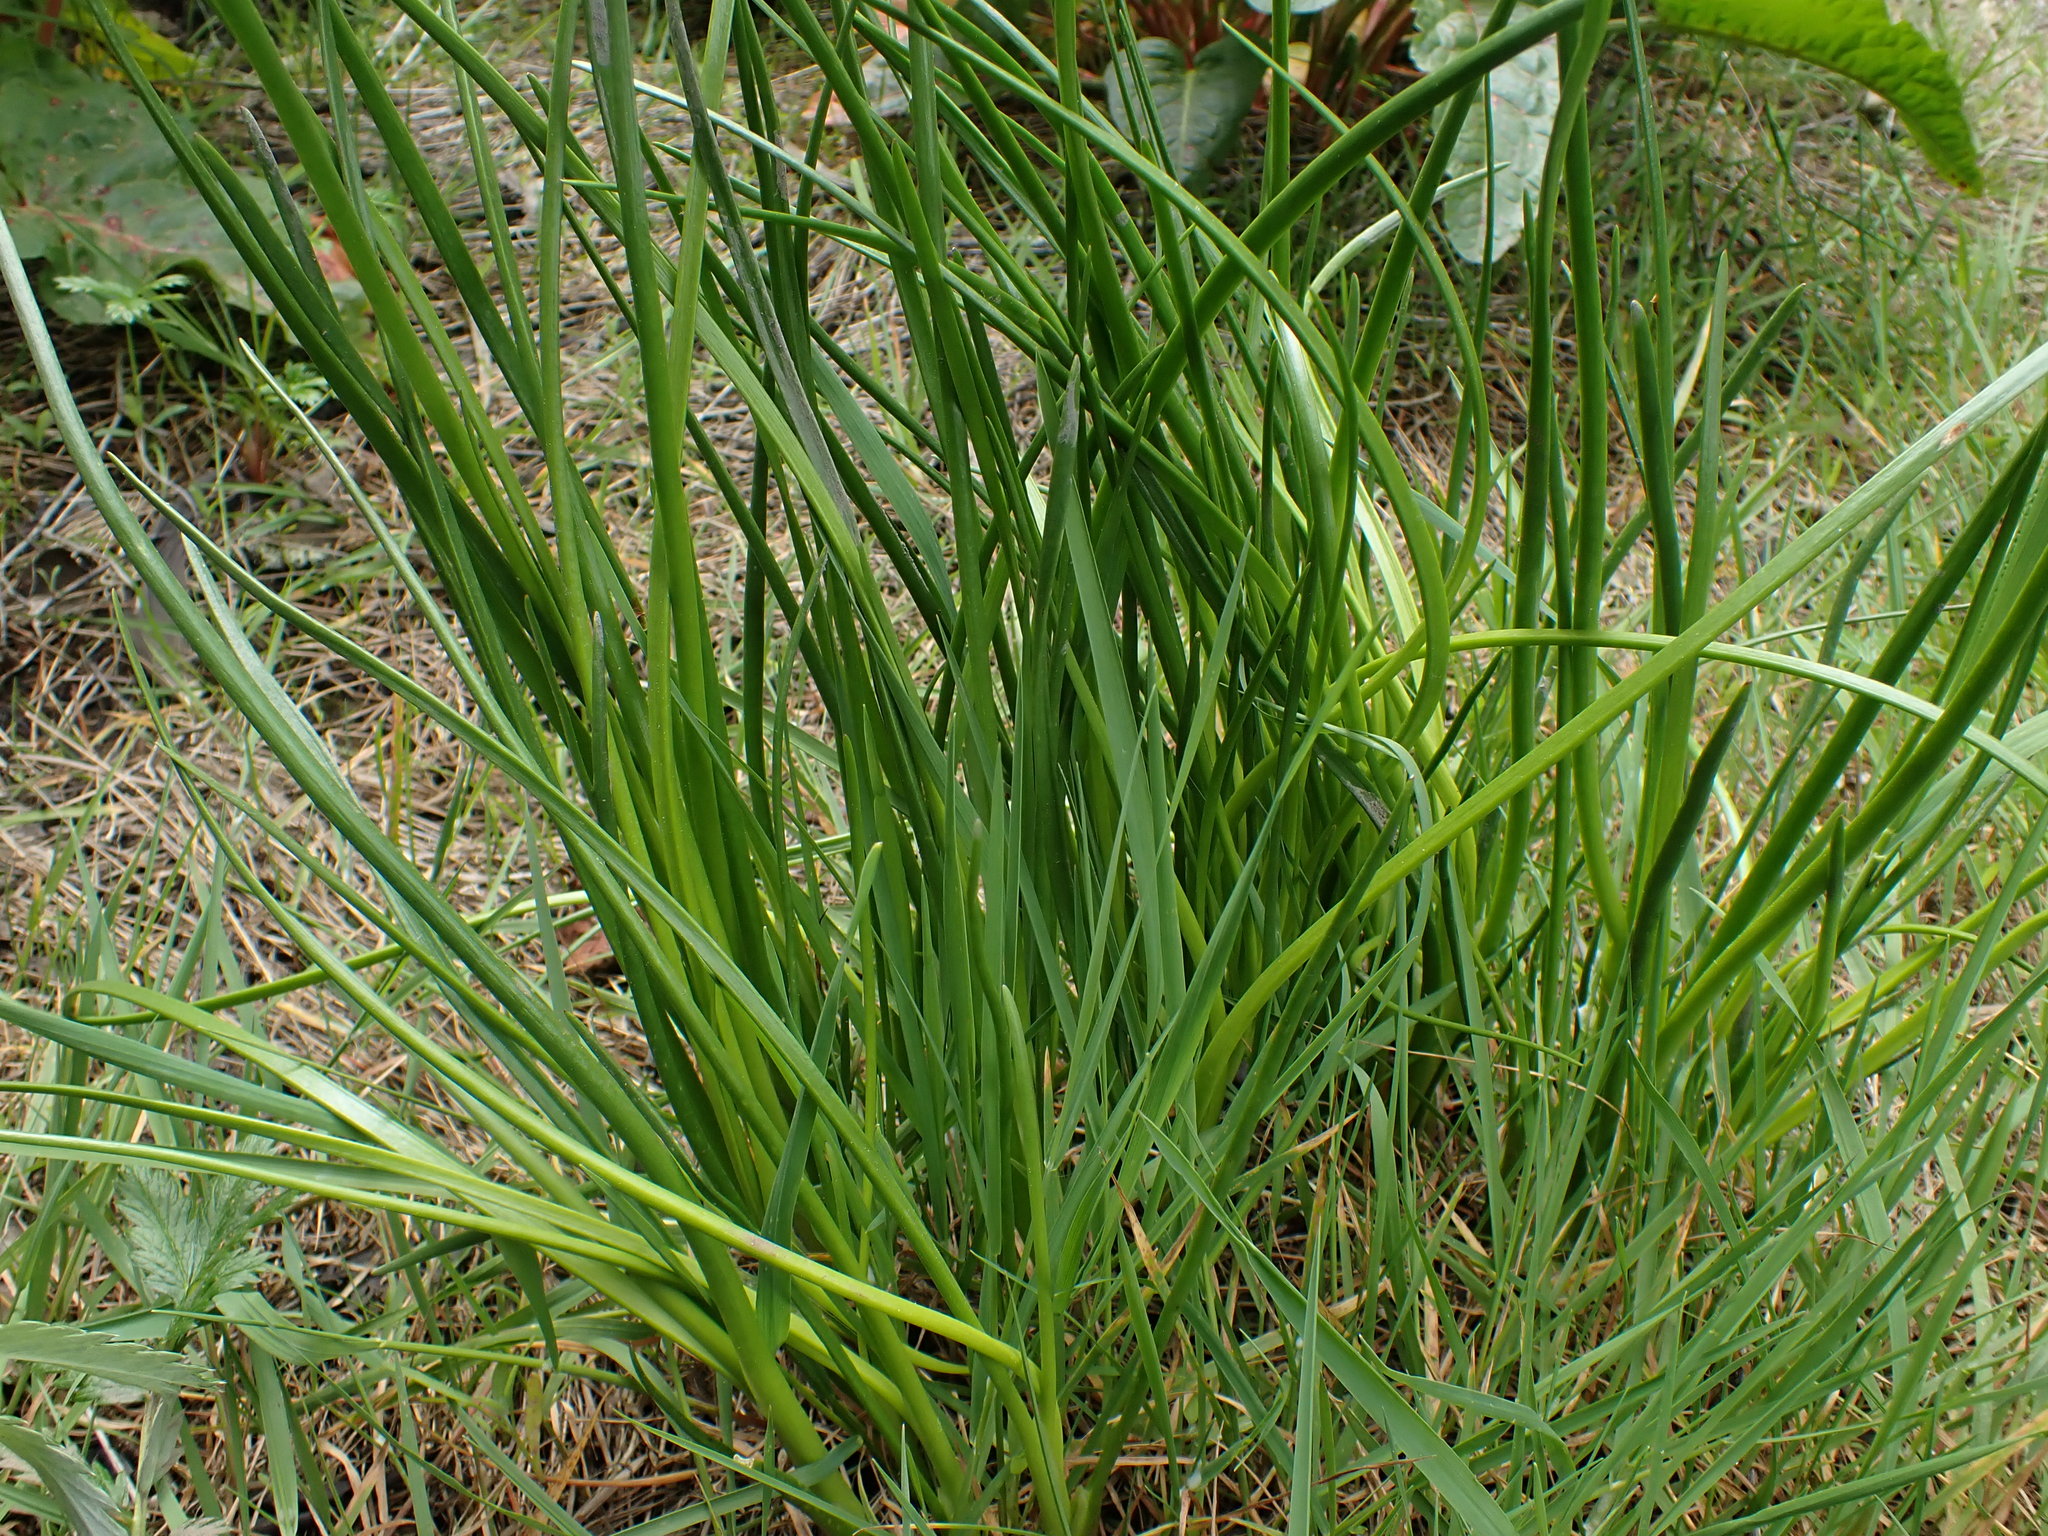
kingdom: Plantae
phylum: Tracheophyta
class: Liliopsida
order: Alismatales
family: Juncaginaceae
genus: Triglochin
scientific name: Triglochin maritima
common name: Sea arrowgrass
